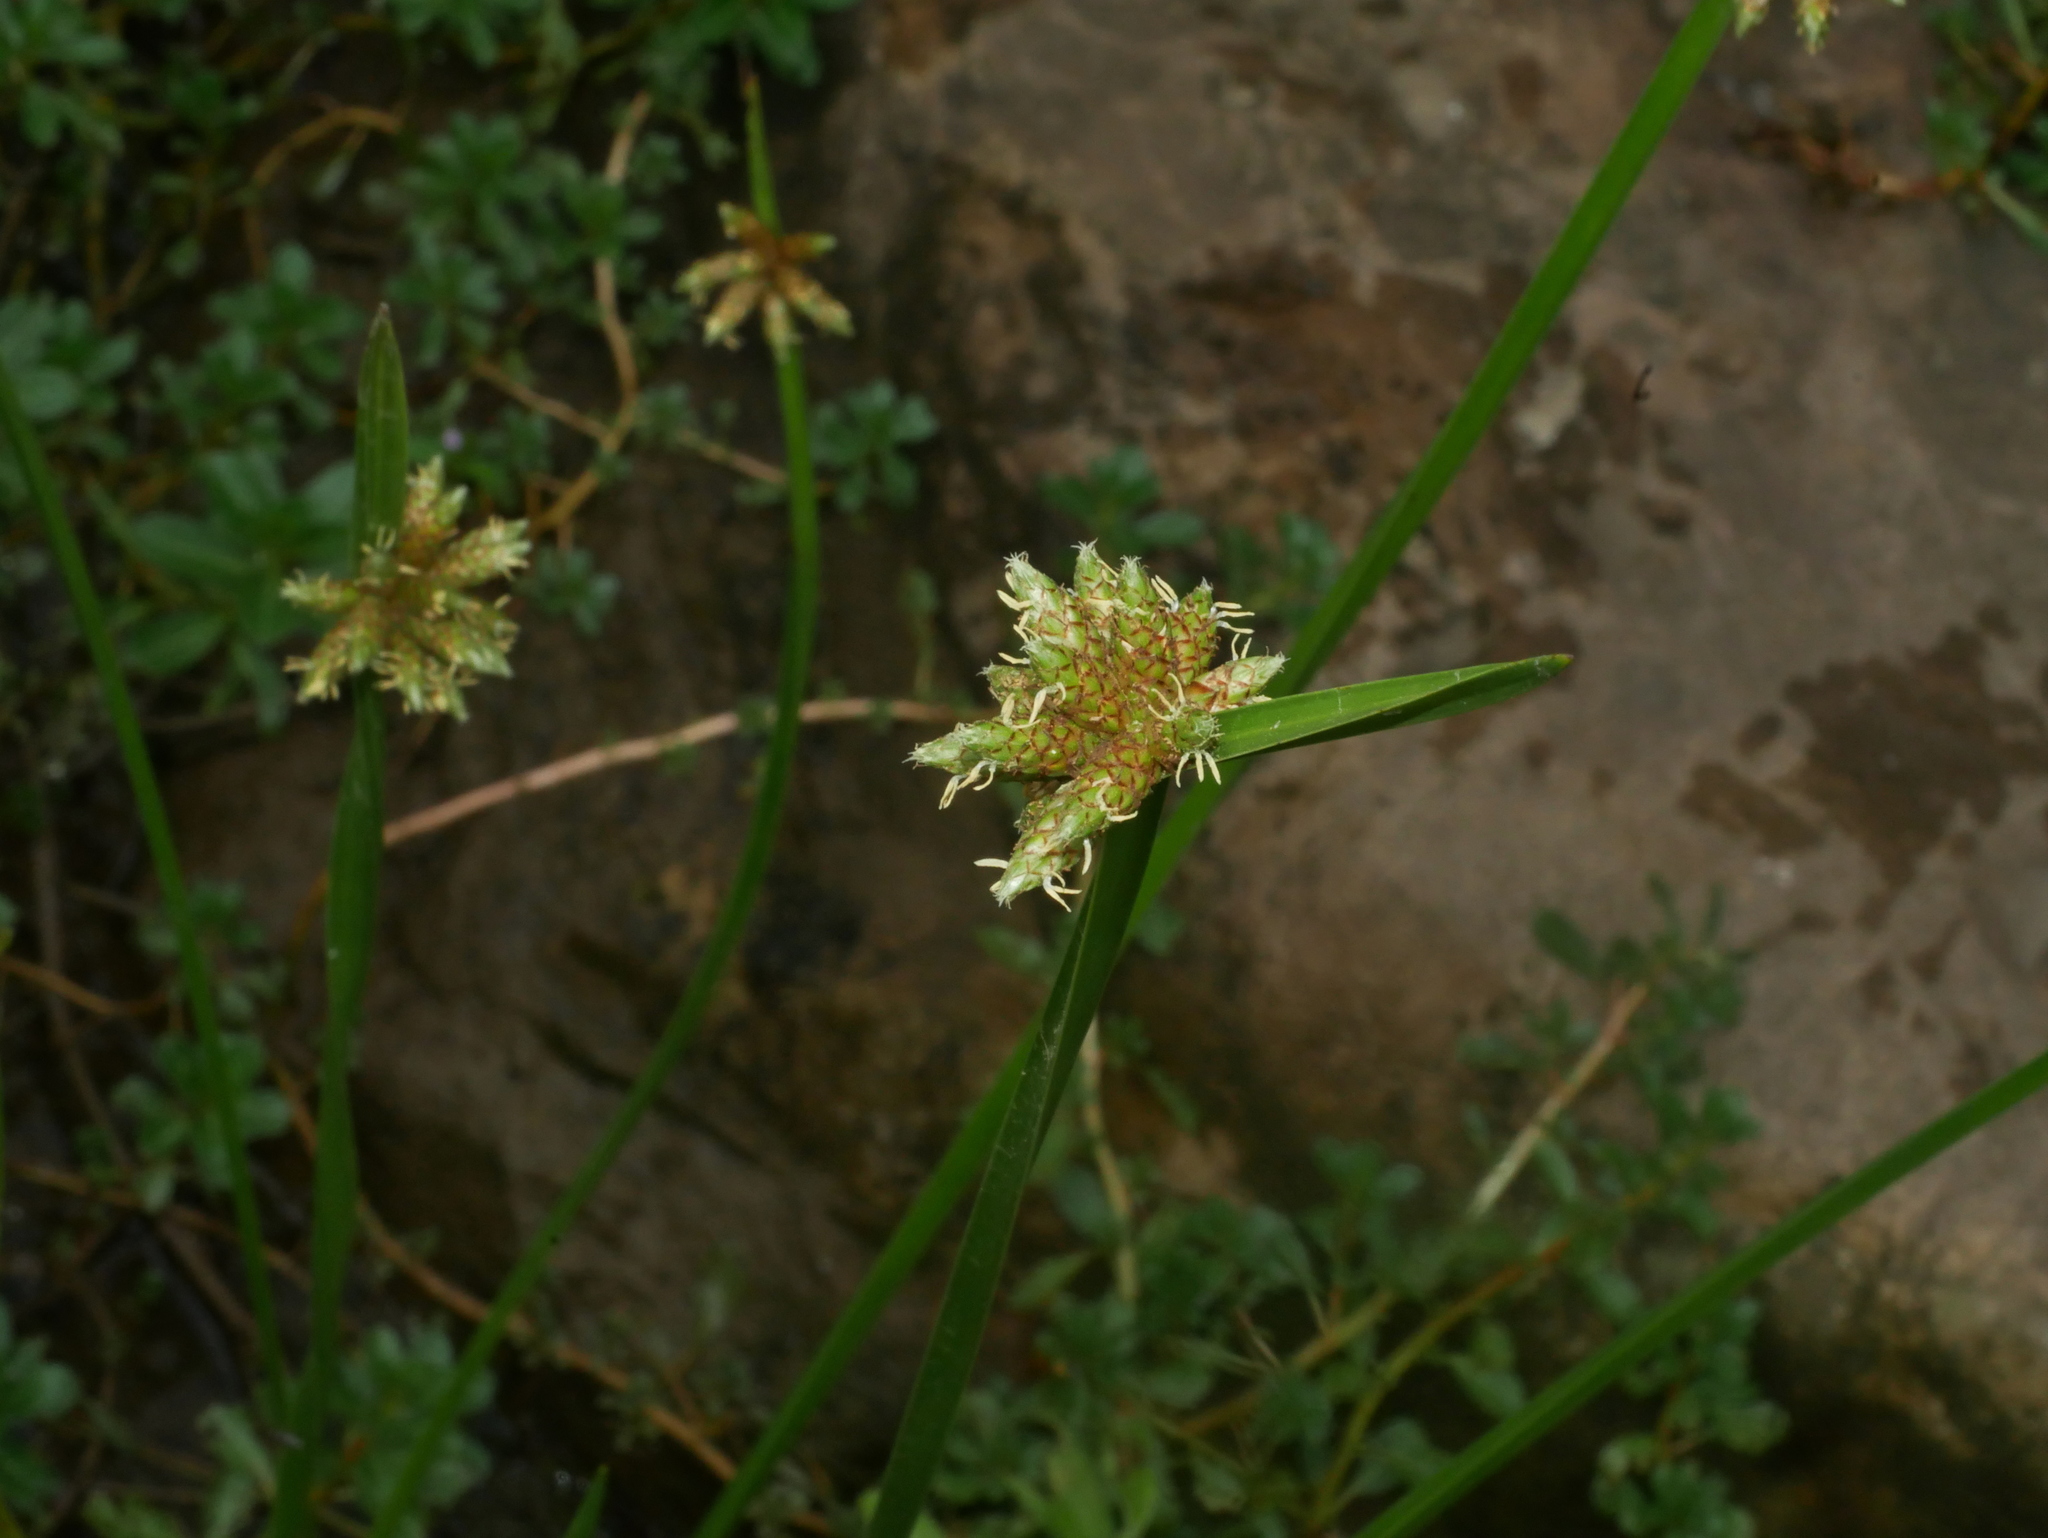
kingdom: Plantae
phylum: Tracheophyta
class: Liliopsida
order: Poales
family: Cyperaceae
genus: Schoenoplectiella
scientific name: Schoenoplectiella mucronata
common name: Bog bulrush
